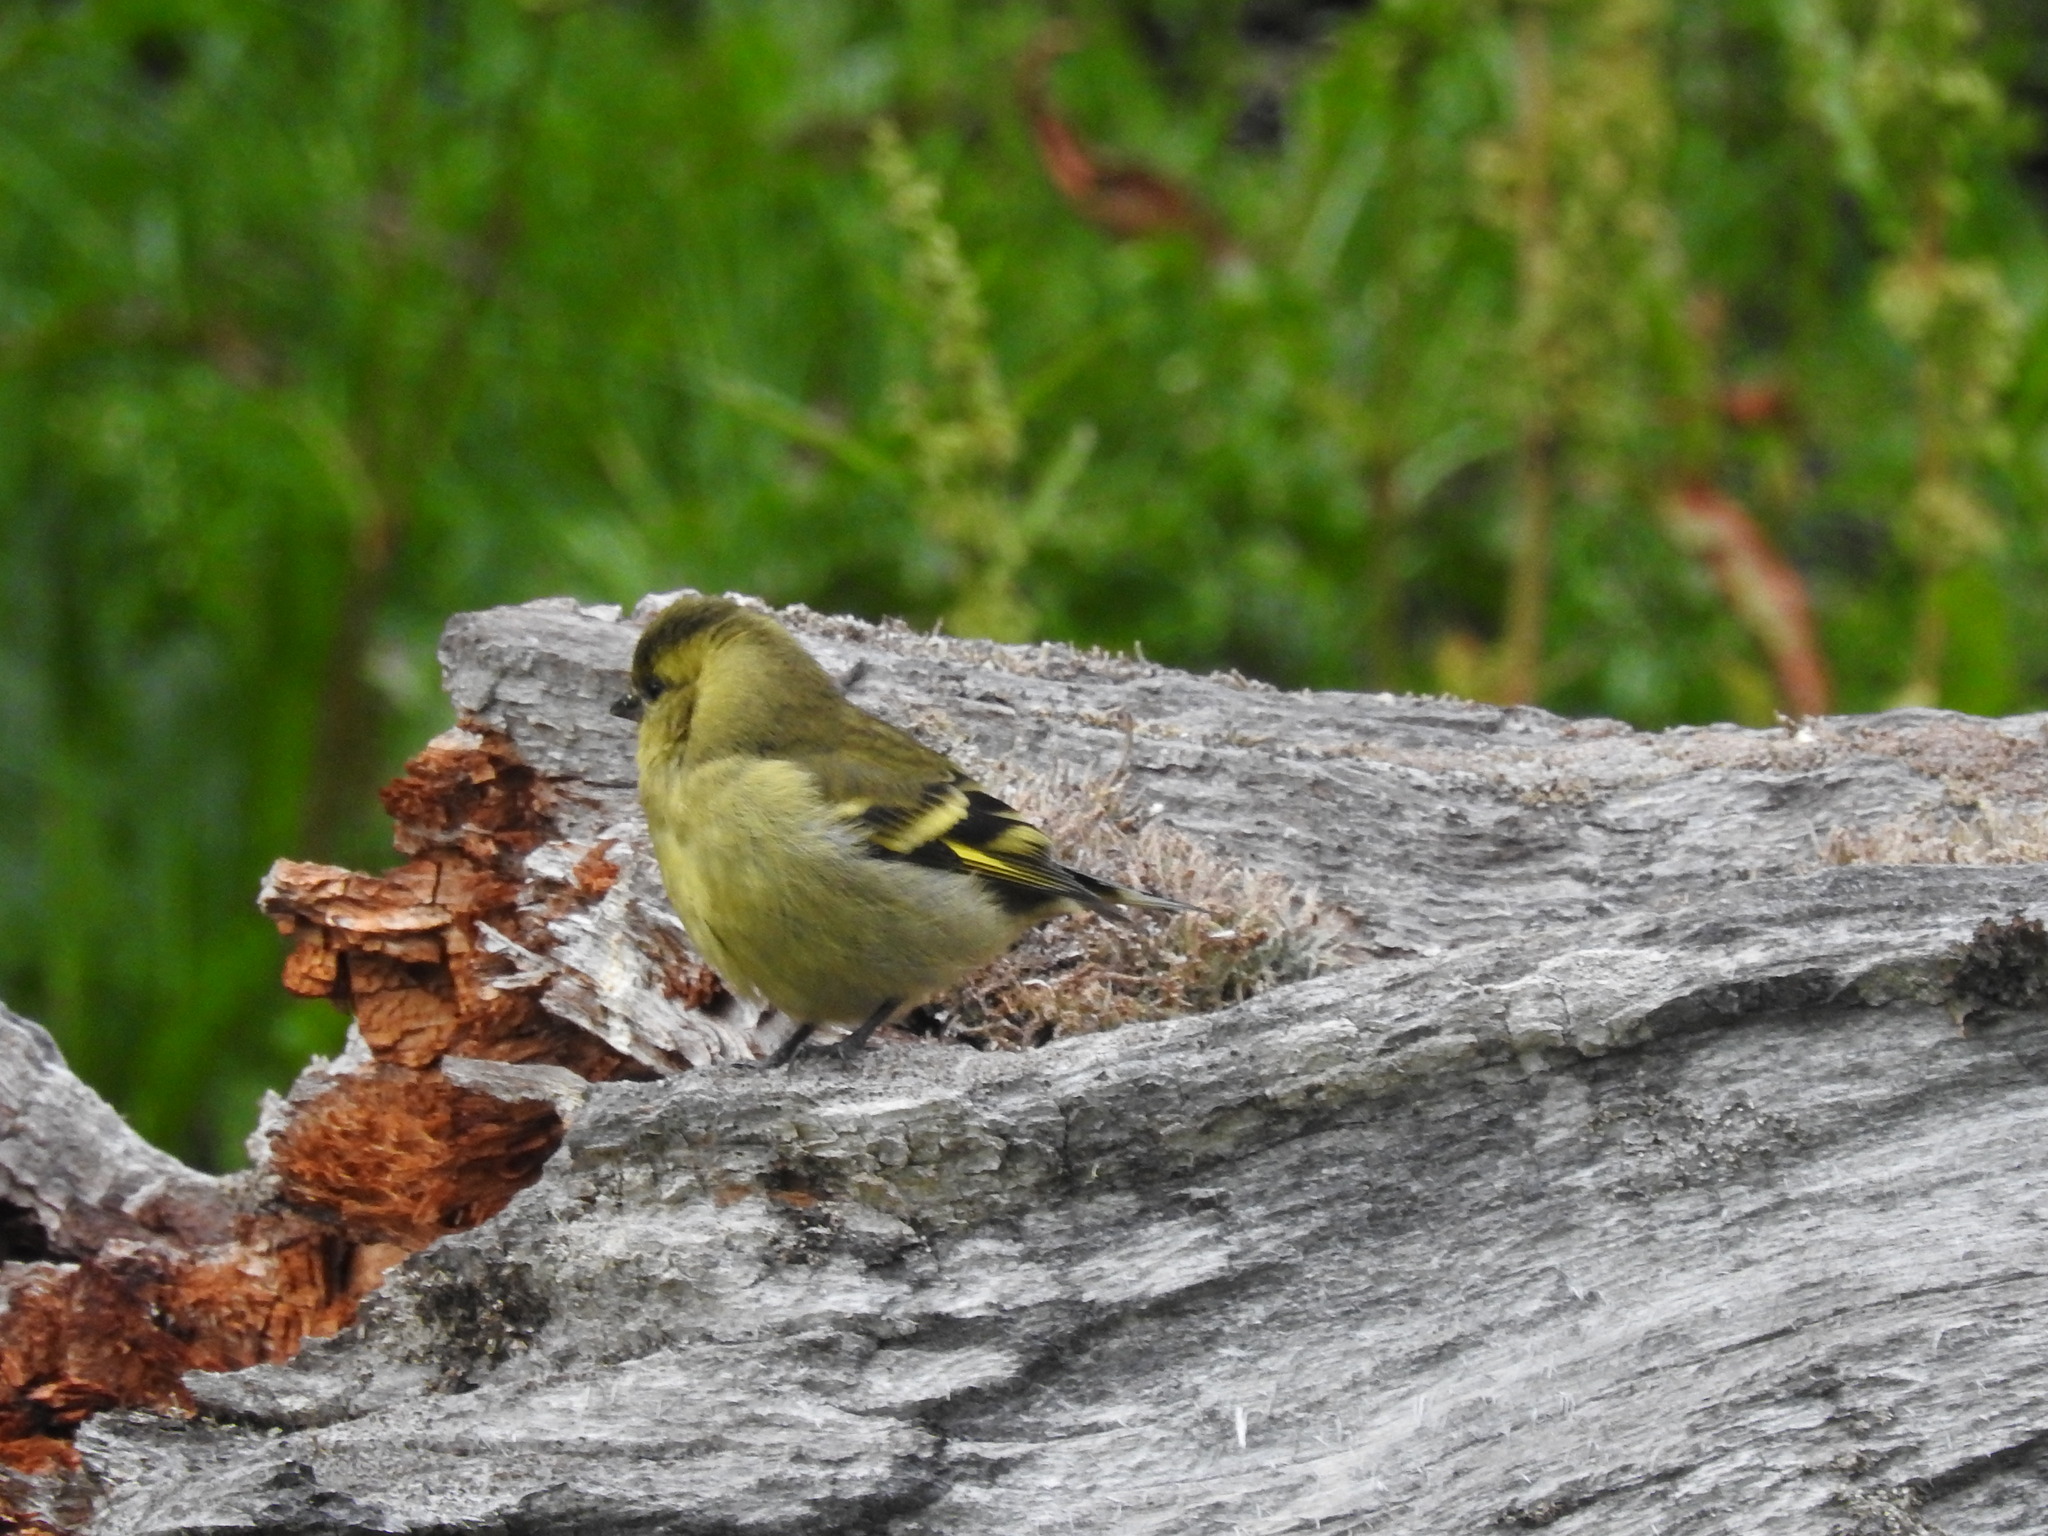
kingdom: Animalia
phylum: Chordata
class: Aves
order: Passeriformes
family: Fringillidae
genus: Spinus
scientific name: Spinus barbatus
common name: Black-chinned siskin
